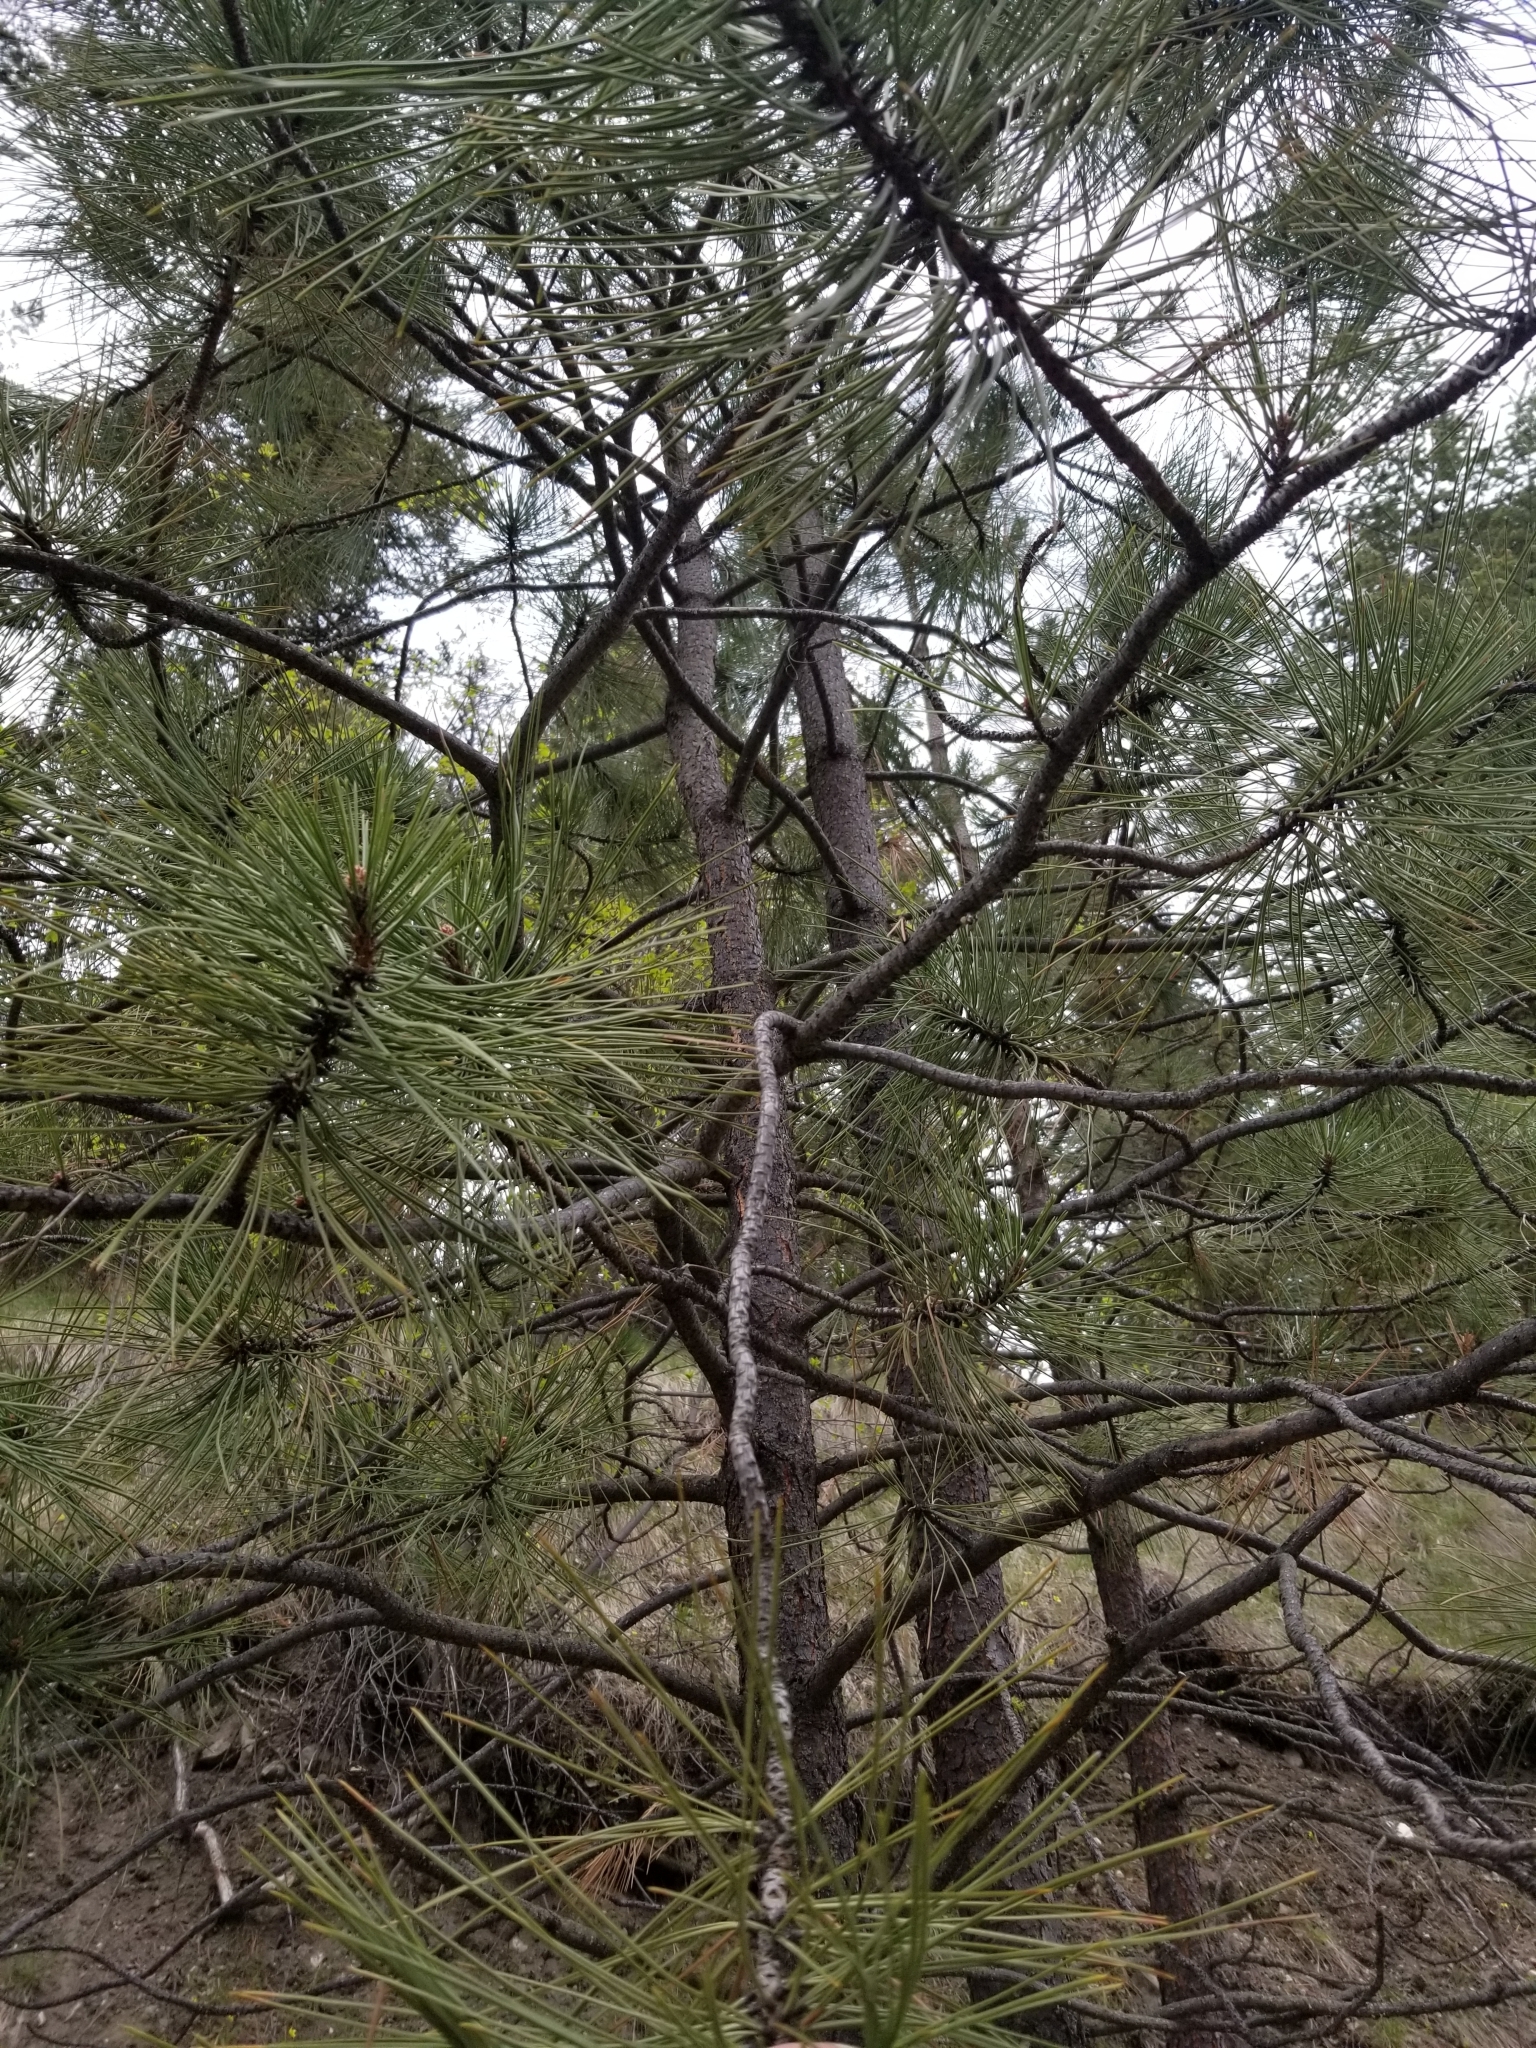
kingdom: Plantae
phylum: Tracheophyta
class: Pinopsida
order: Pinales
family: Pinaceae
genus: Pinus
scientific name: Pinus ponderosa
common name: Western yellow-pine
